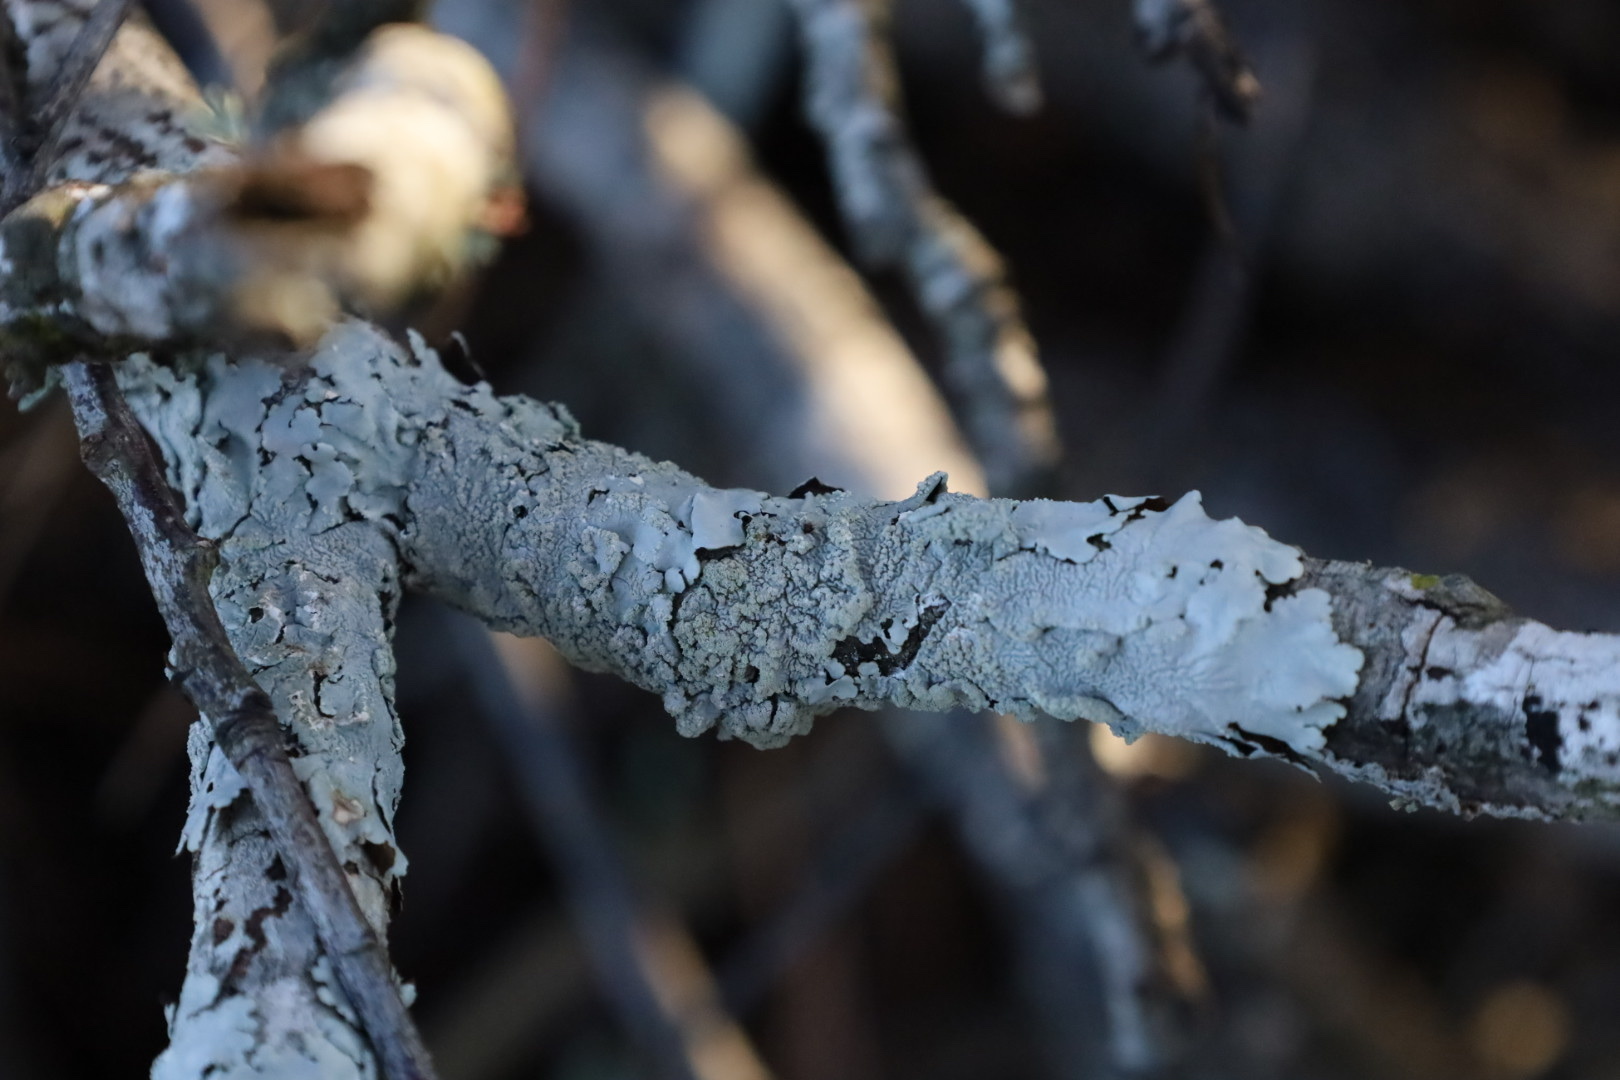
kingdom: Fungi
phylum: Ascomycota
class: Lecanoromycetes
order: Lecanorales
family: Parmeliaceae
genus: Canoparmelia
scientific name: Canoparmelia texana
